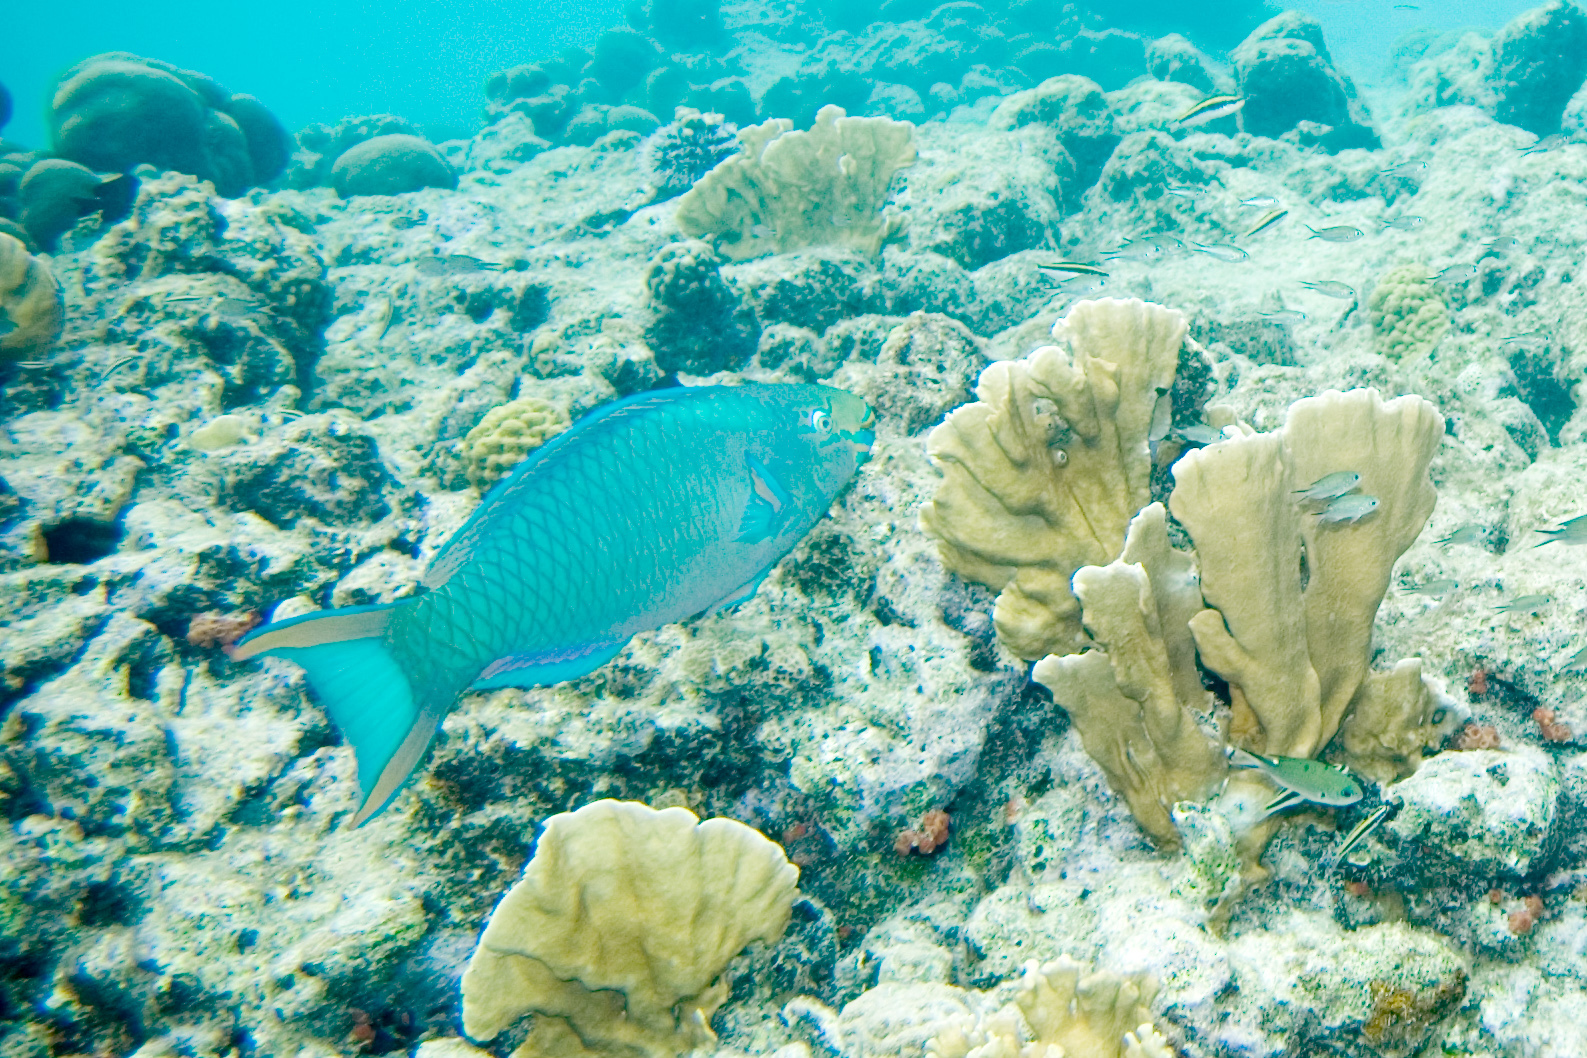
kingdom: Animalia
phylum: Chordata
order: Perciformes
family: Scaridae
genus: Scarus
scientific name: Scarus vetula
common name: Queen parrotfish
